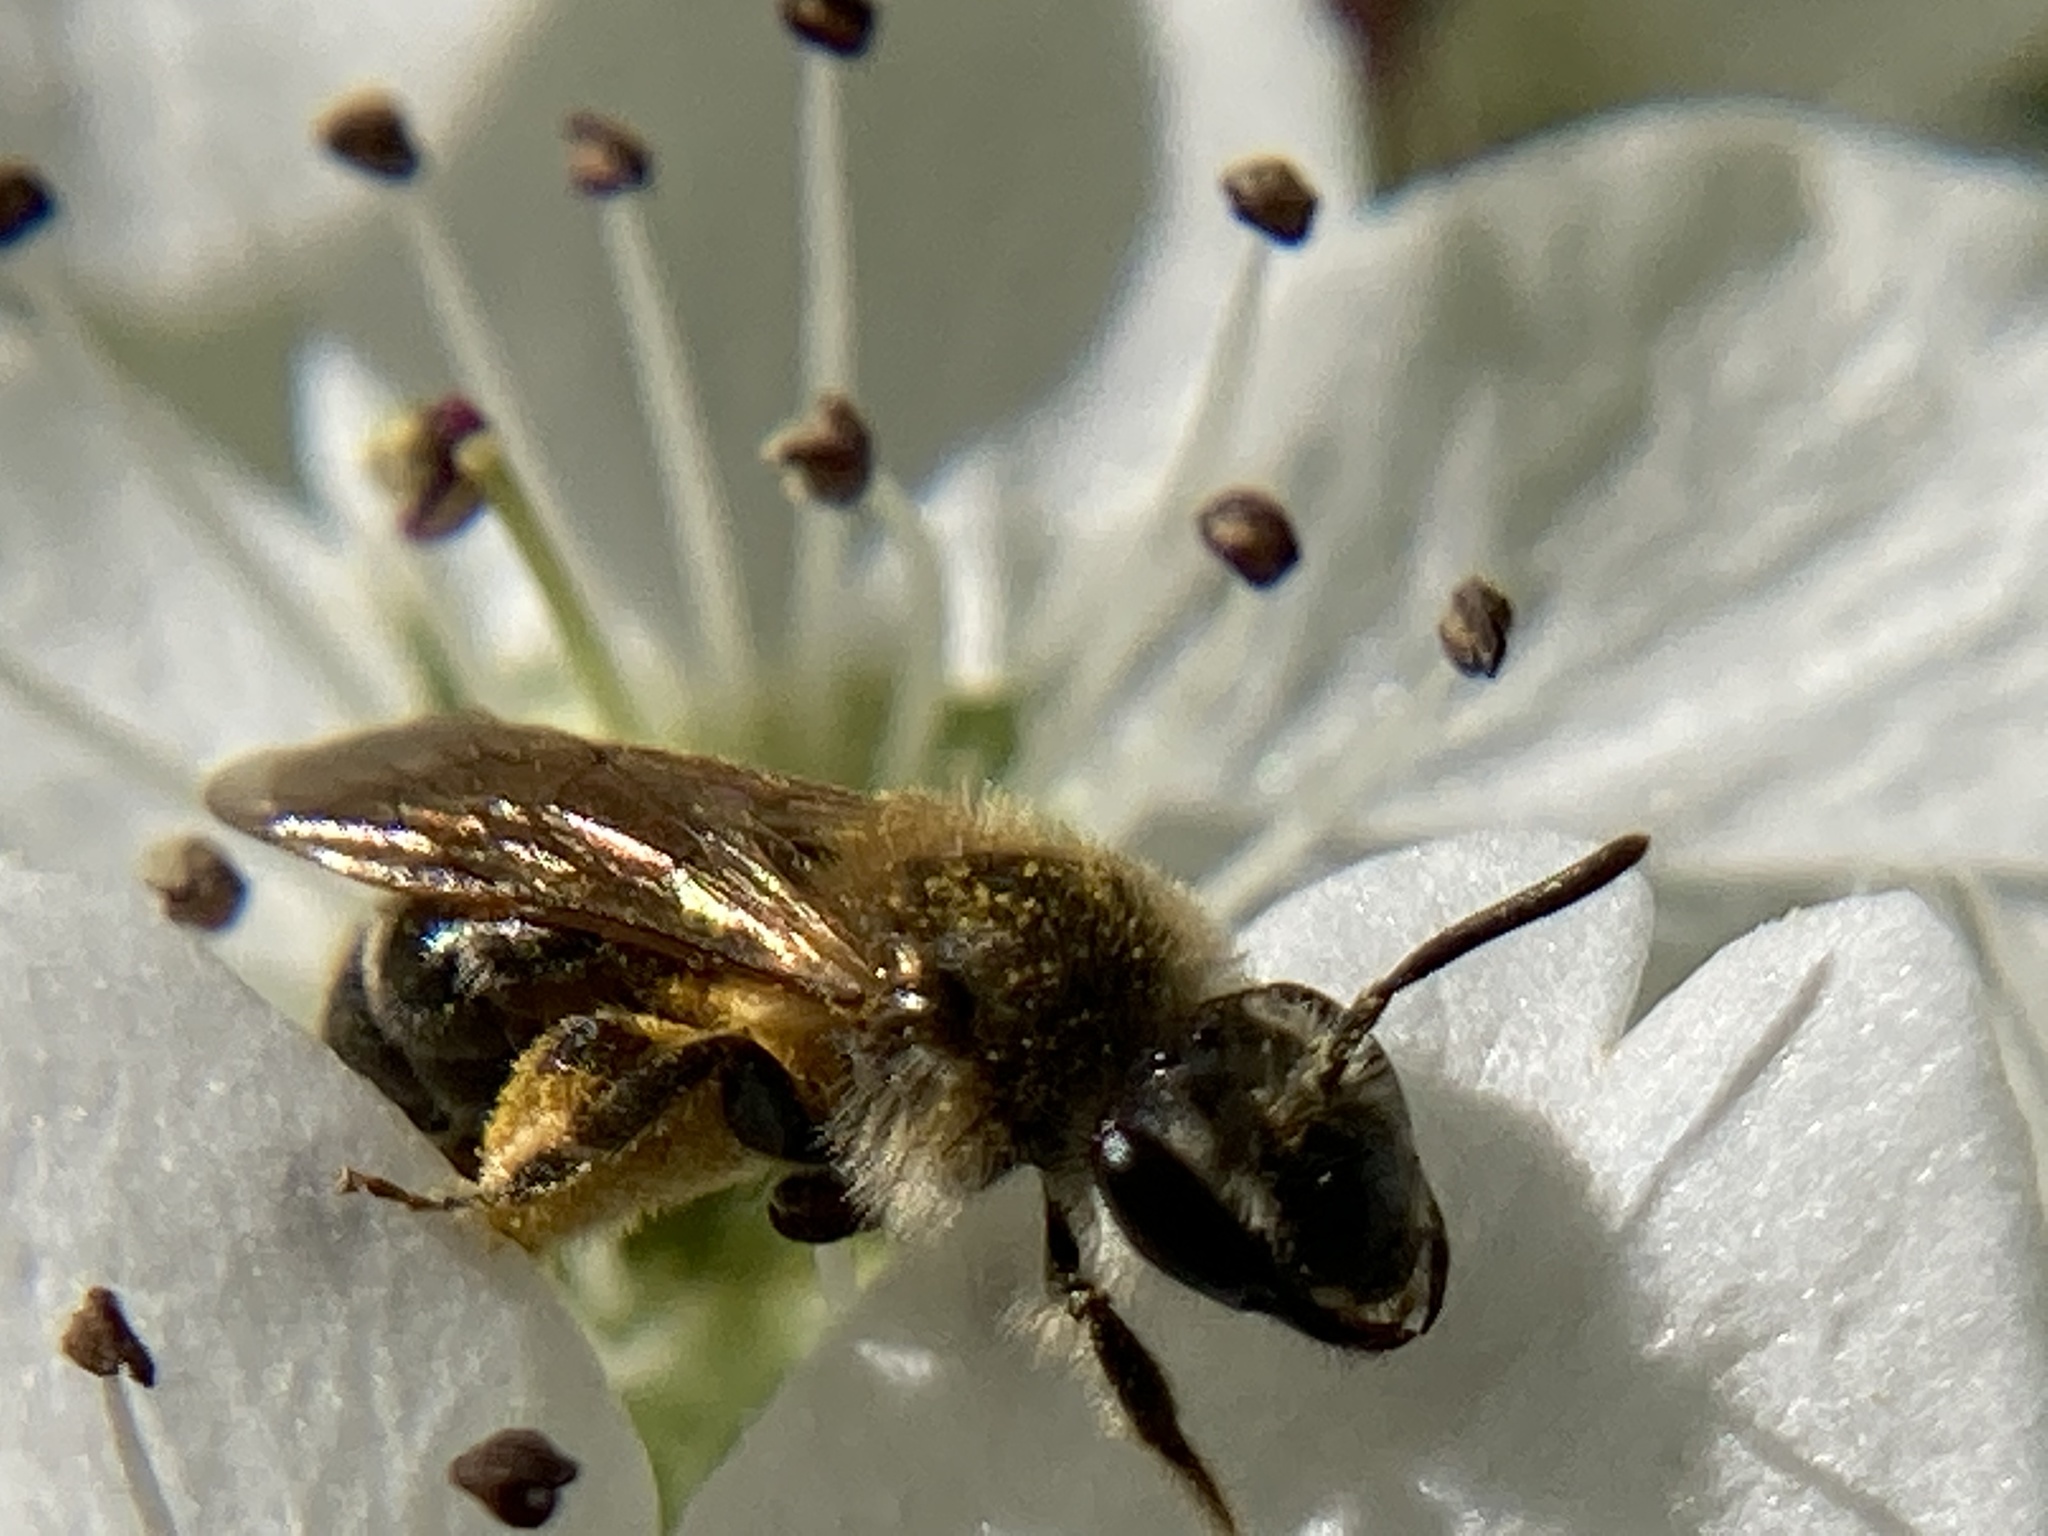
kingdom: Animalia
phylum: Arthropoda
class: Insecta
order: Hymenoptera
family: Andrenidae
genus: Andrena
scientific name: Andrena miserabilis
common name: Miserable mining bee
